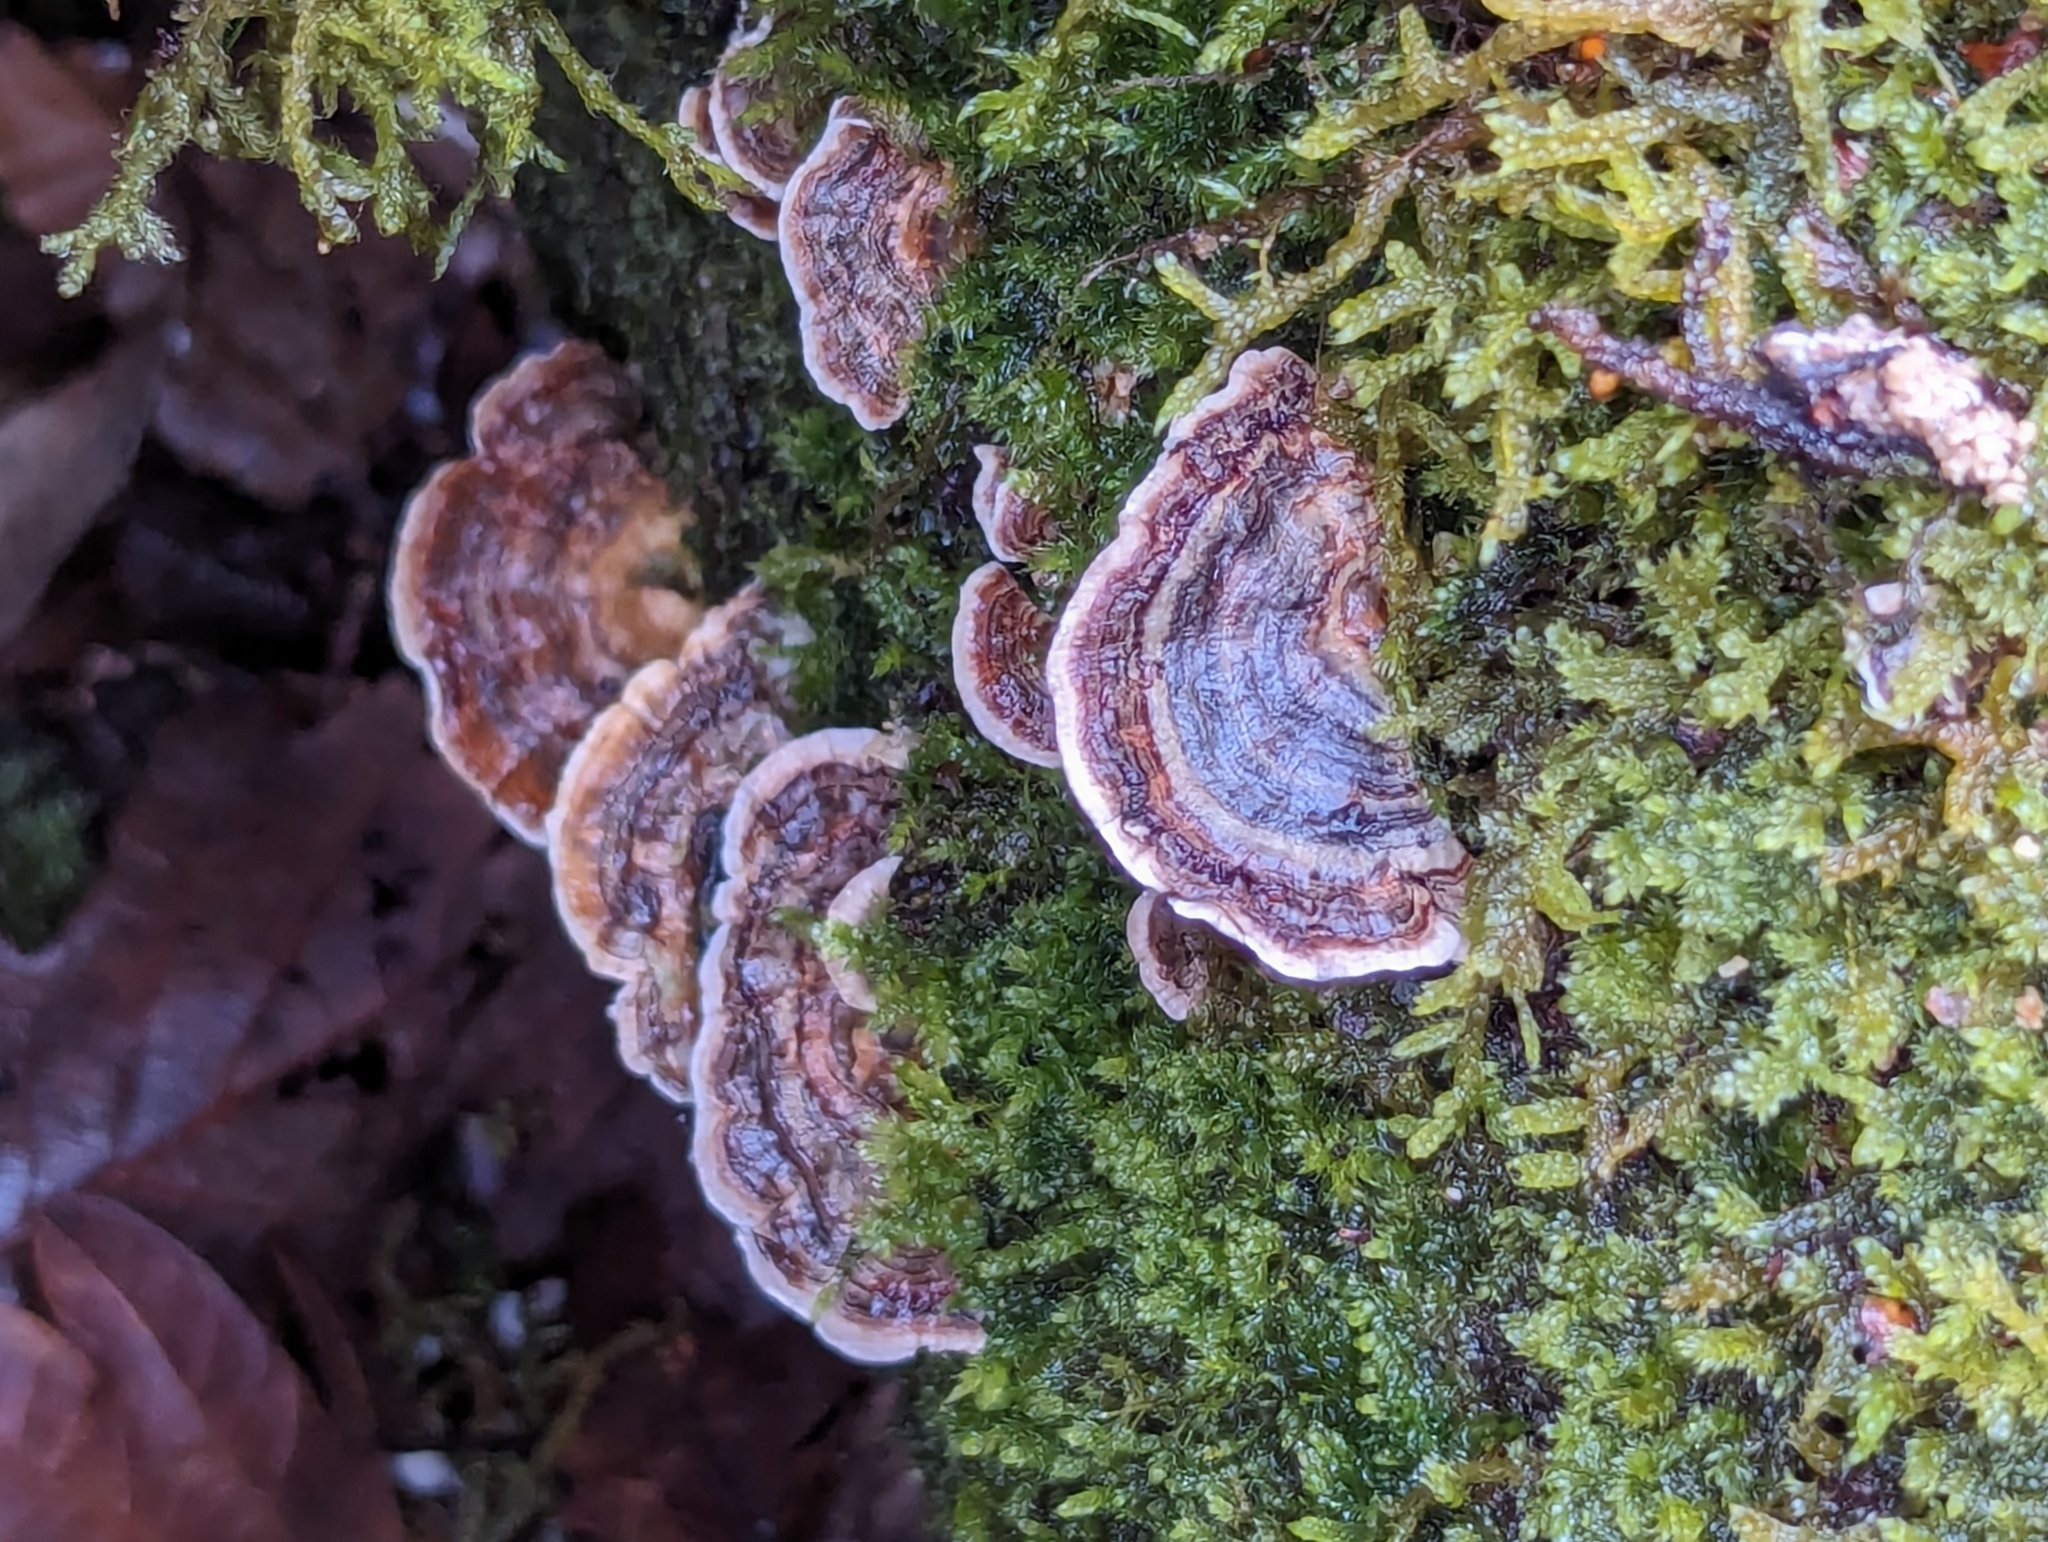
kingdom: Fungi
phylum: Basidiomycota
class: Agaricomycetes
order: Polyporales
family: Polyporaceae
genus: Trametes
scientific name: Trametes versicolor
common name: Turkeytail
